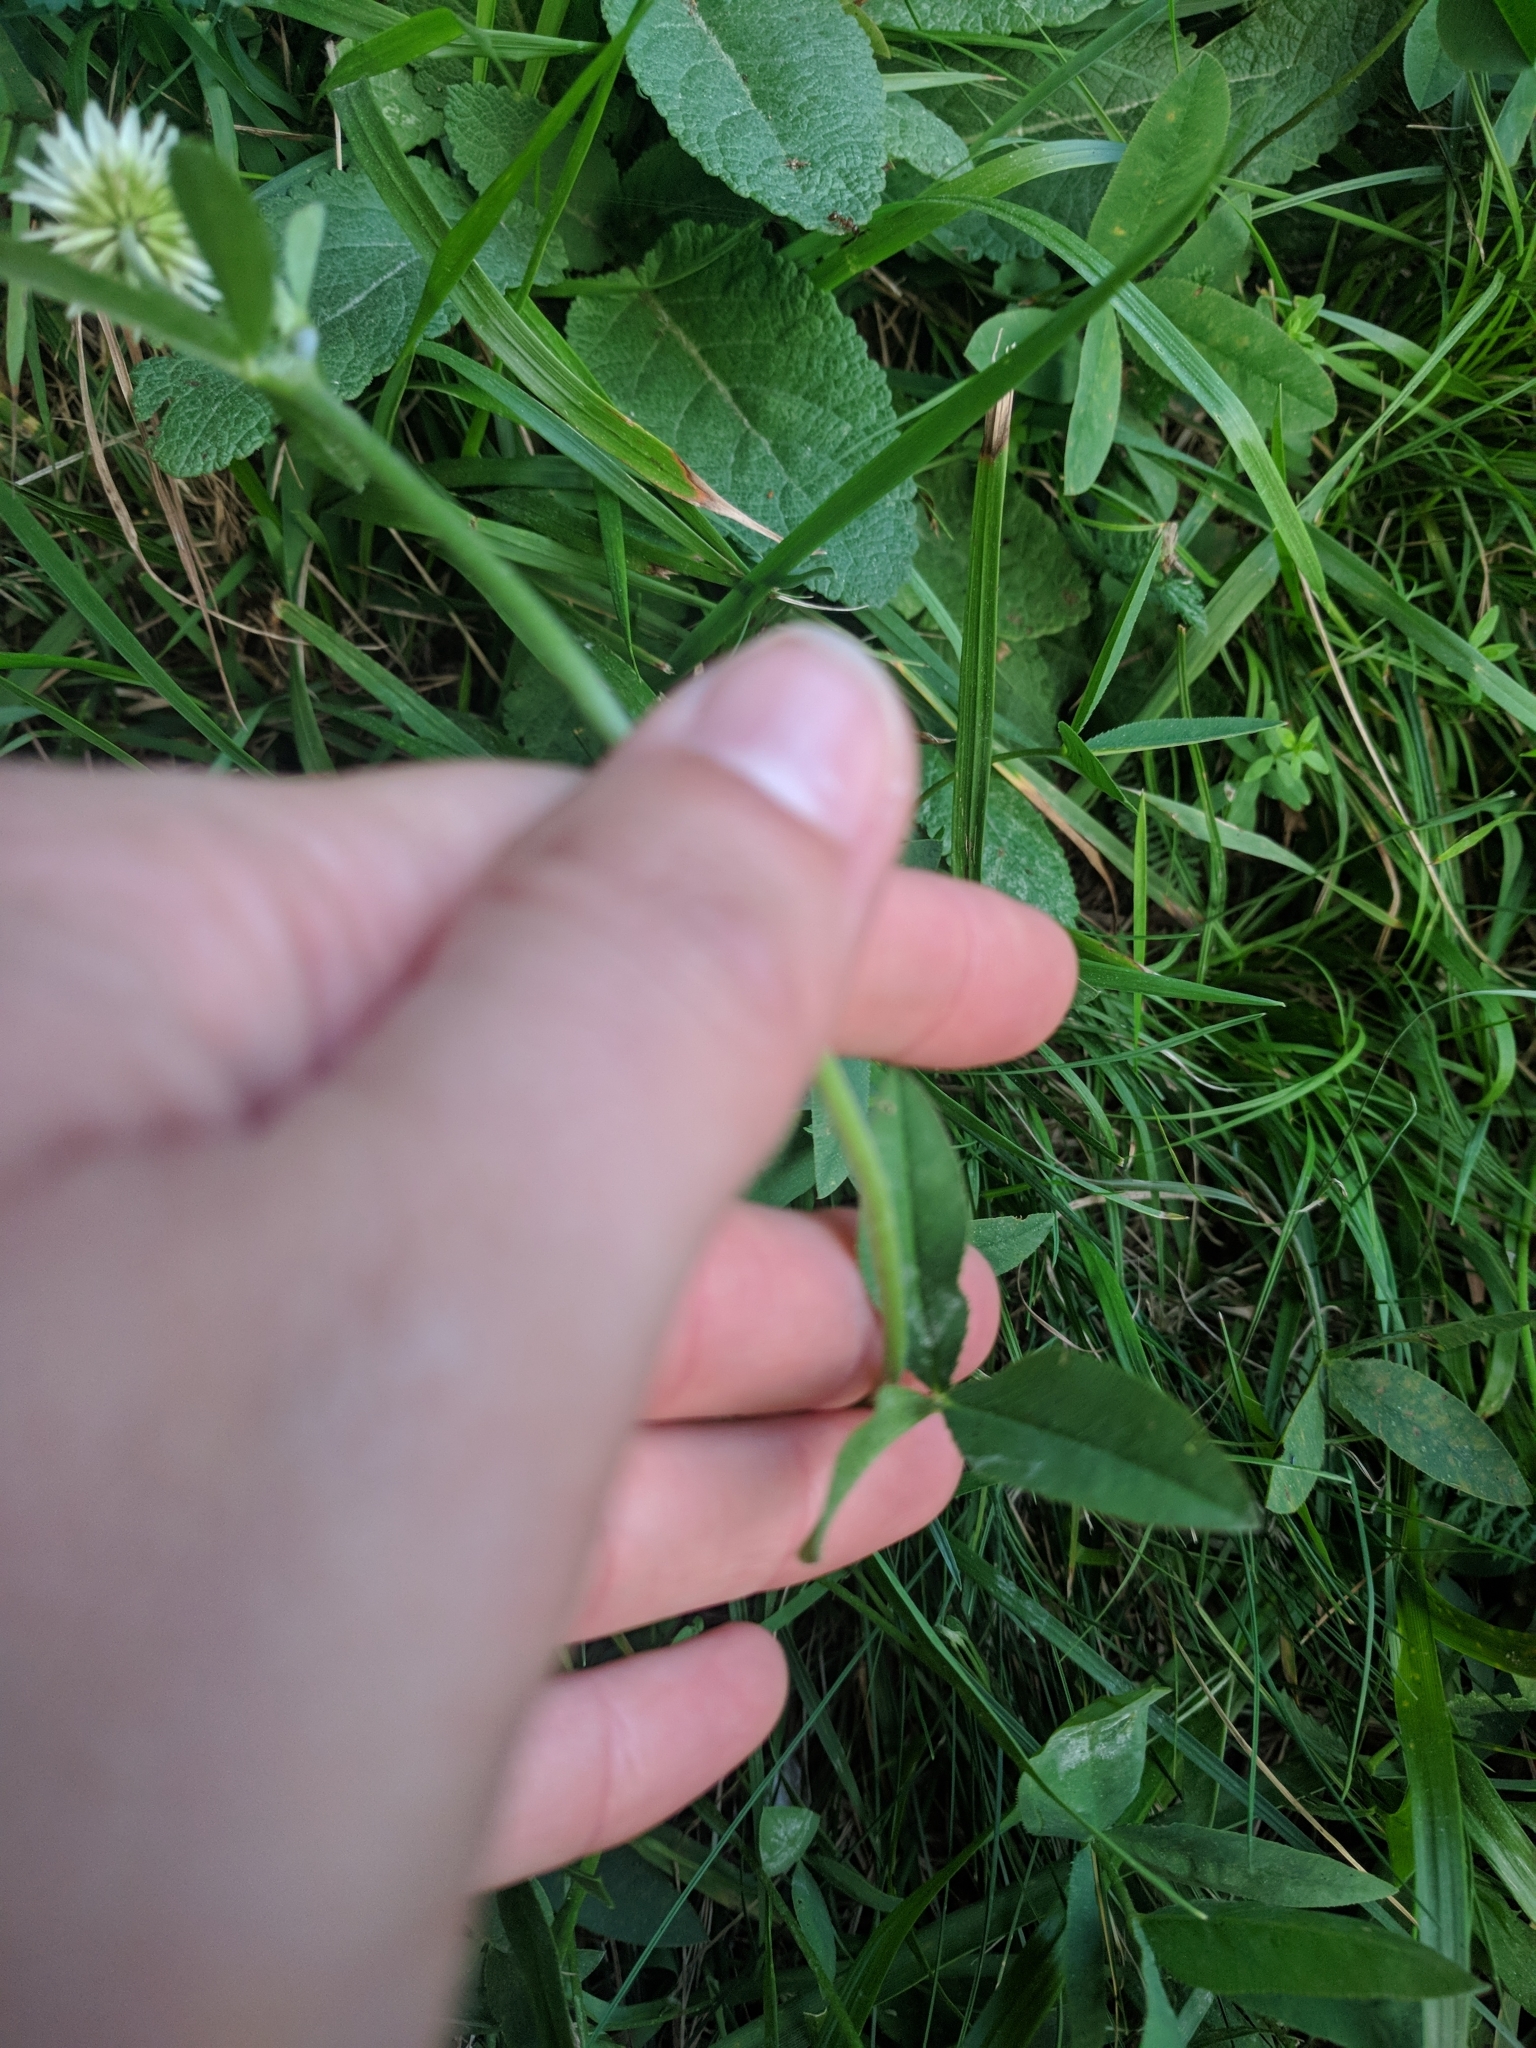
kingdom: Plantae
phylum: Tracheophyta
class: Magnoliopsida
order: Fabales
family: Fabaceae
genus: Trifolium
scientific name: Trifolium montanum
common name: Mountain clover
